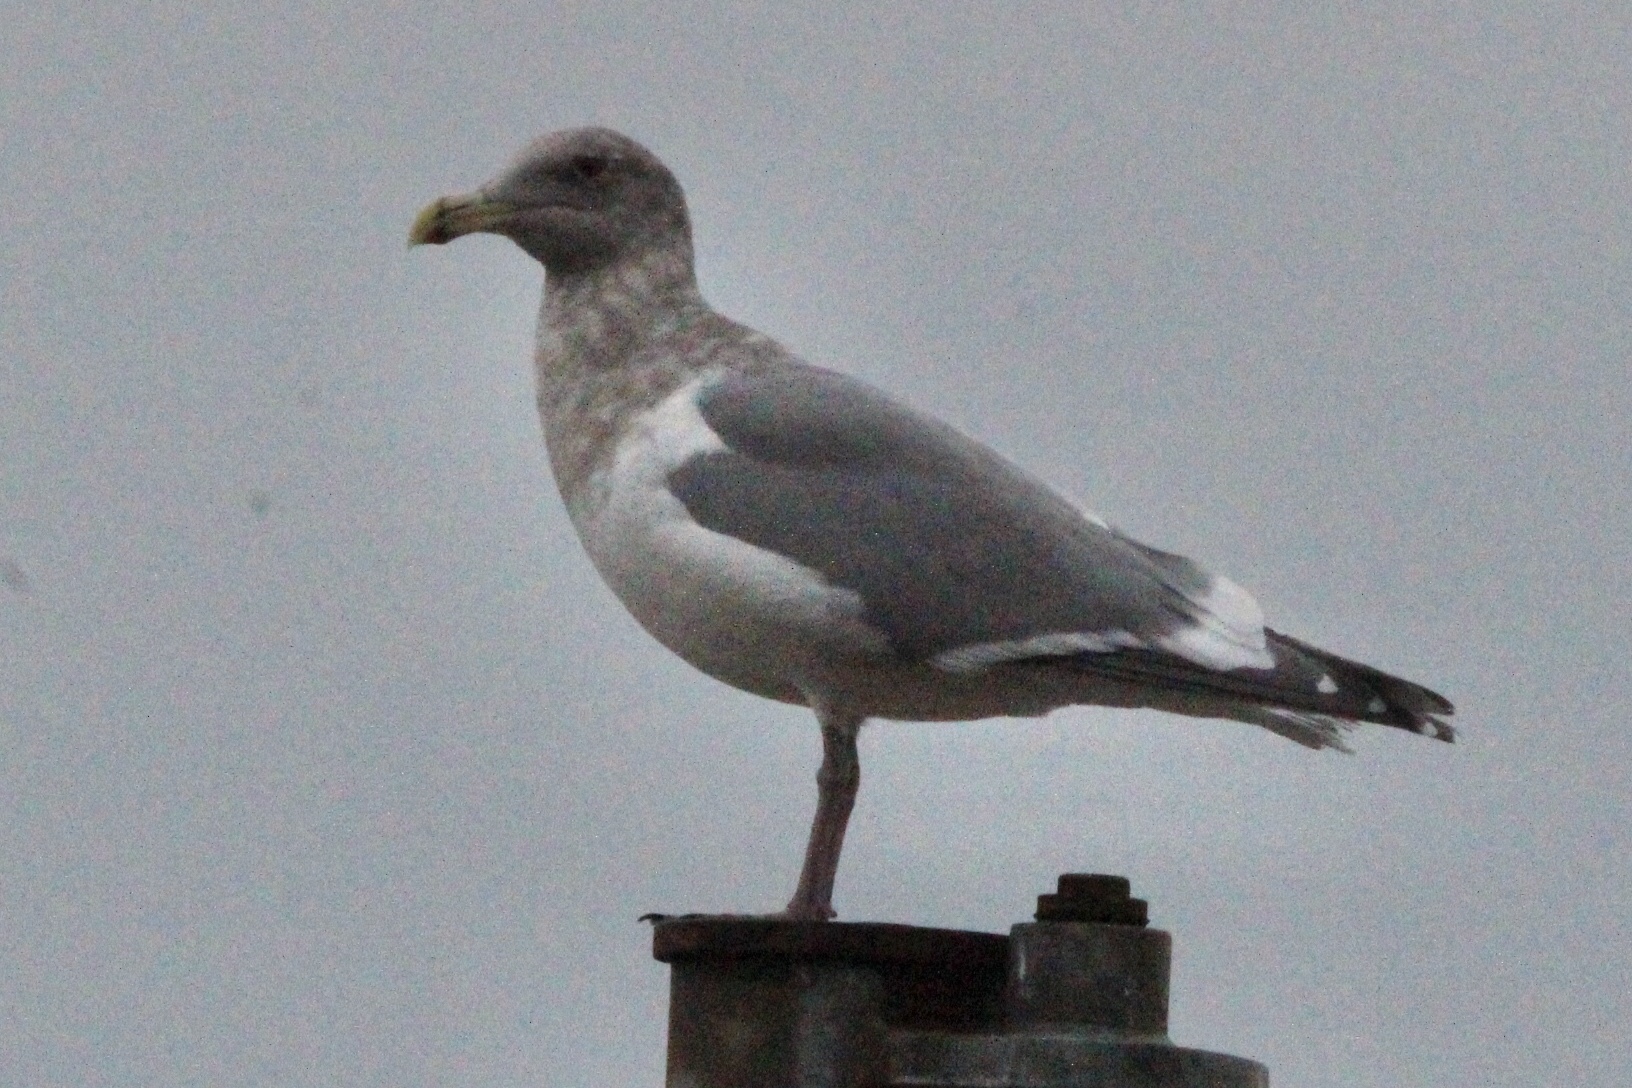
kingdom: Animalia
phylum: Chordata
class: Aves
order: Charadriiformes
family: Laridae
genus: Larus
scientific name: Larus
